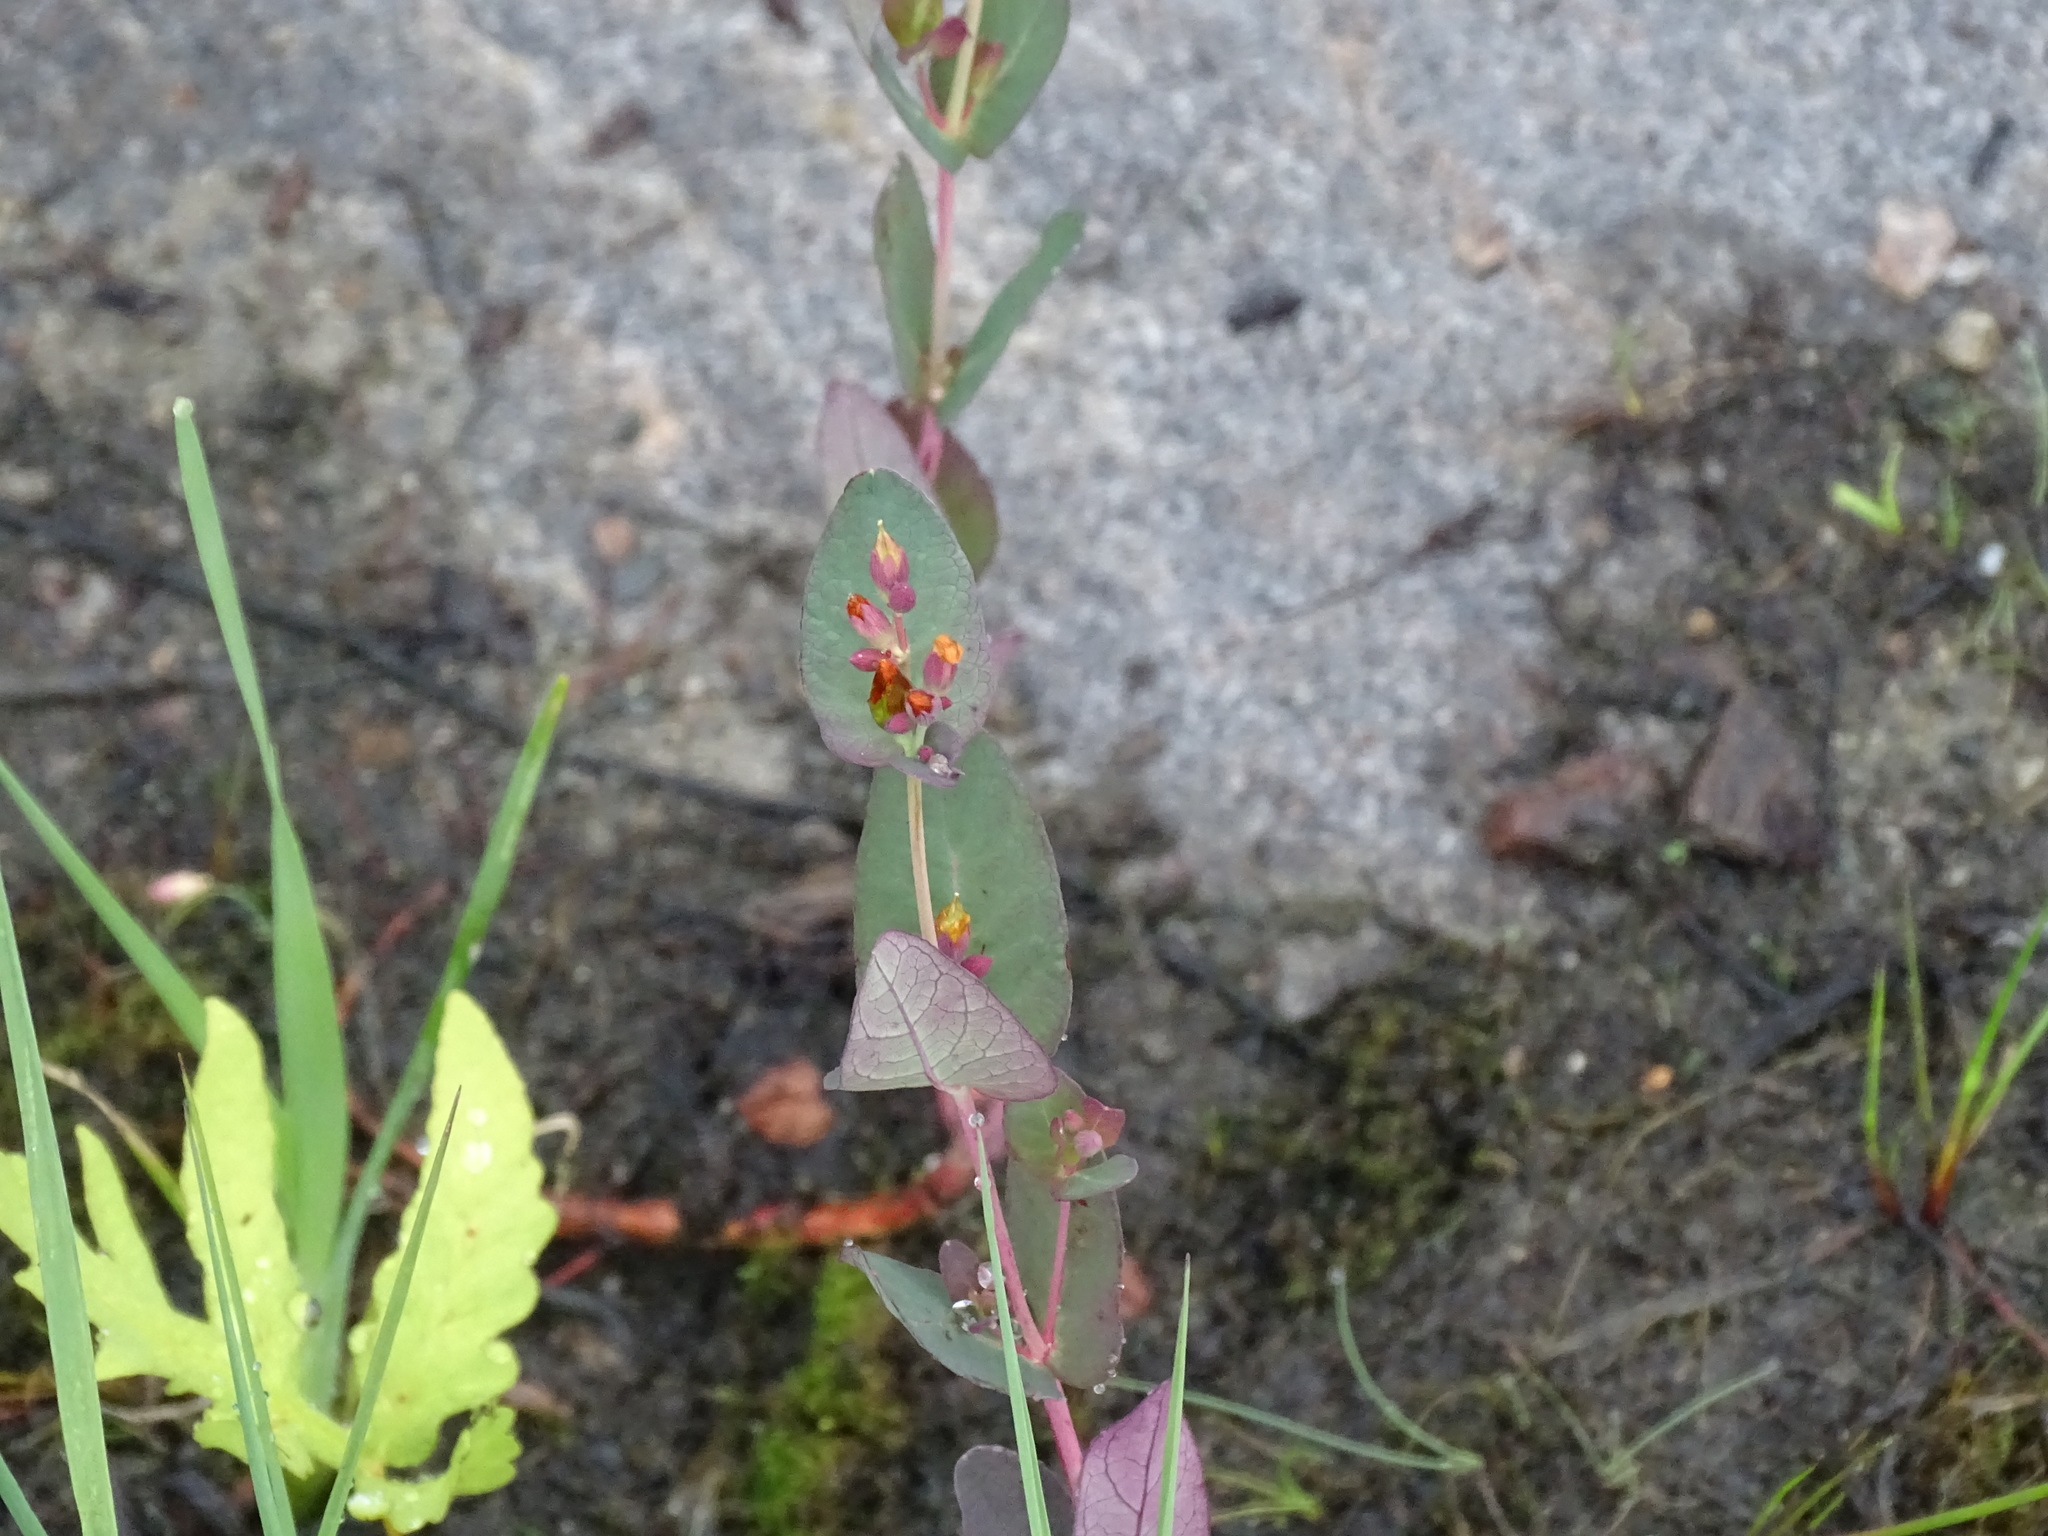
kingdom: Plantae
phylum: Tracheophyta
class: Magnoliopsida
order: Malpighiales
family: Hypericaceae
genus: Triadenum
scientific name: Triadenum fraseri
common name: Fraser's marsh st. johnswort
